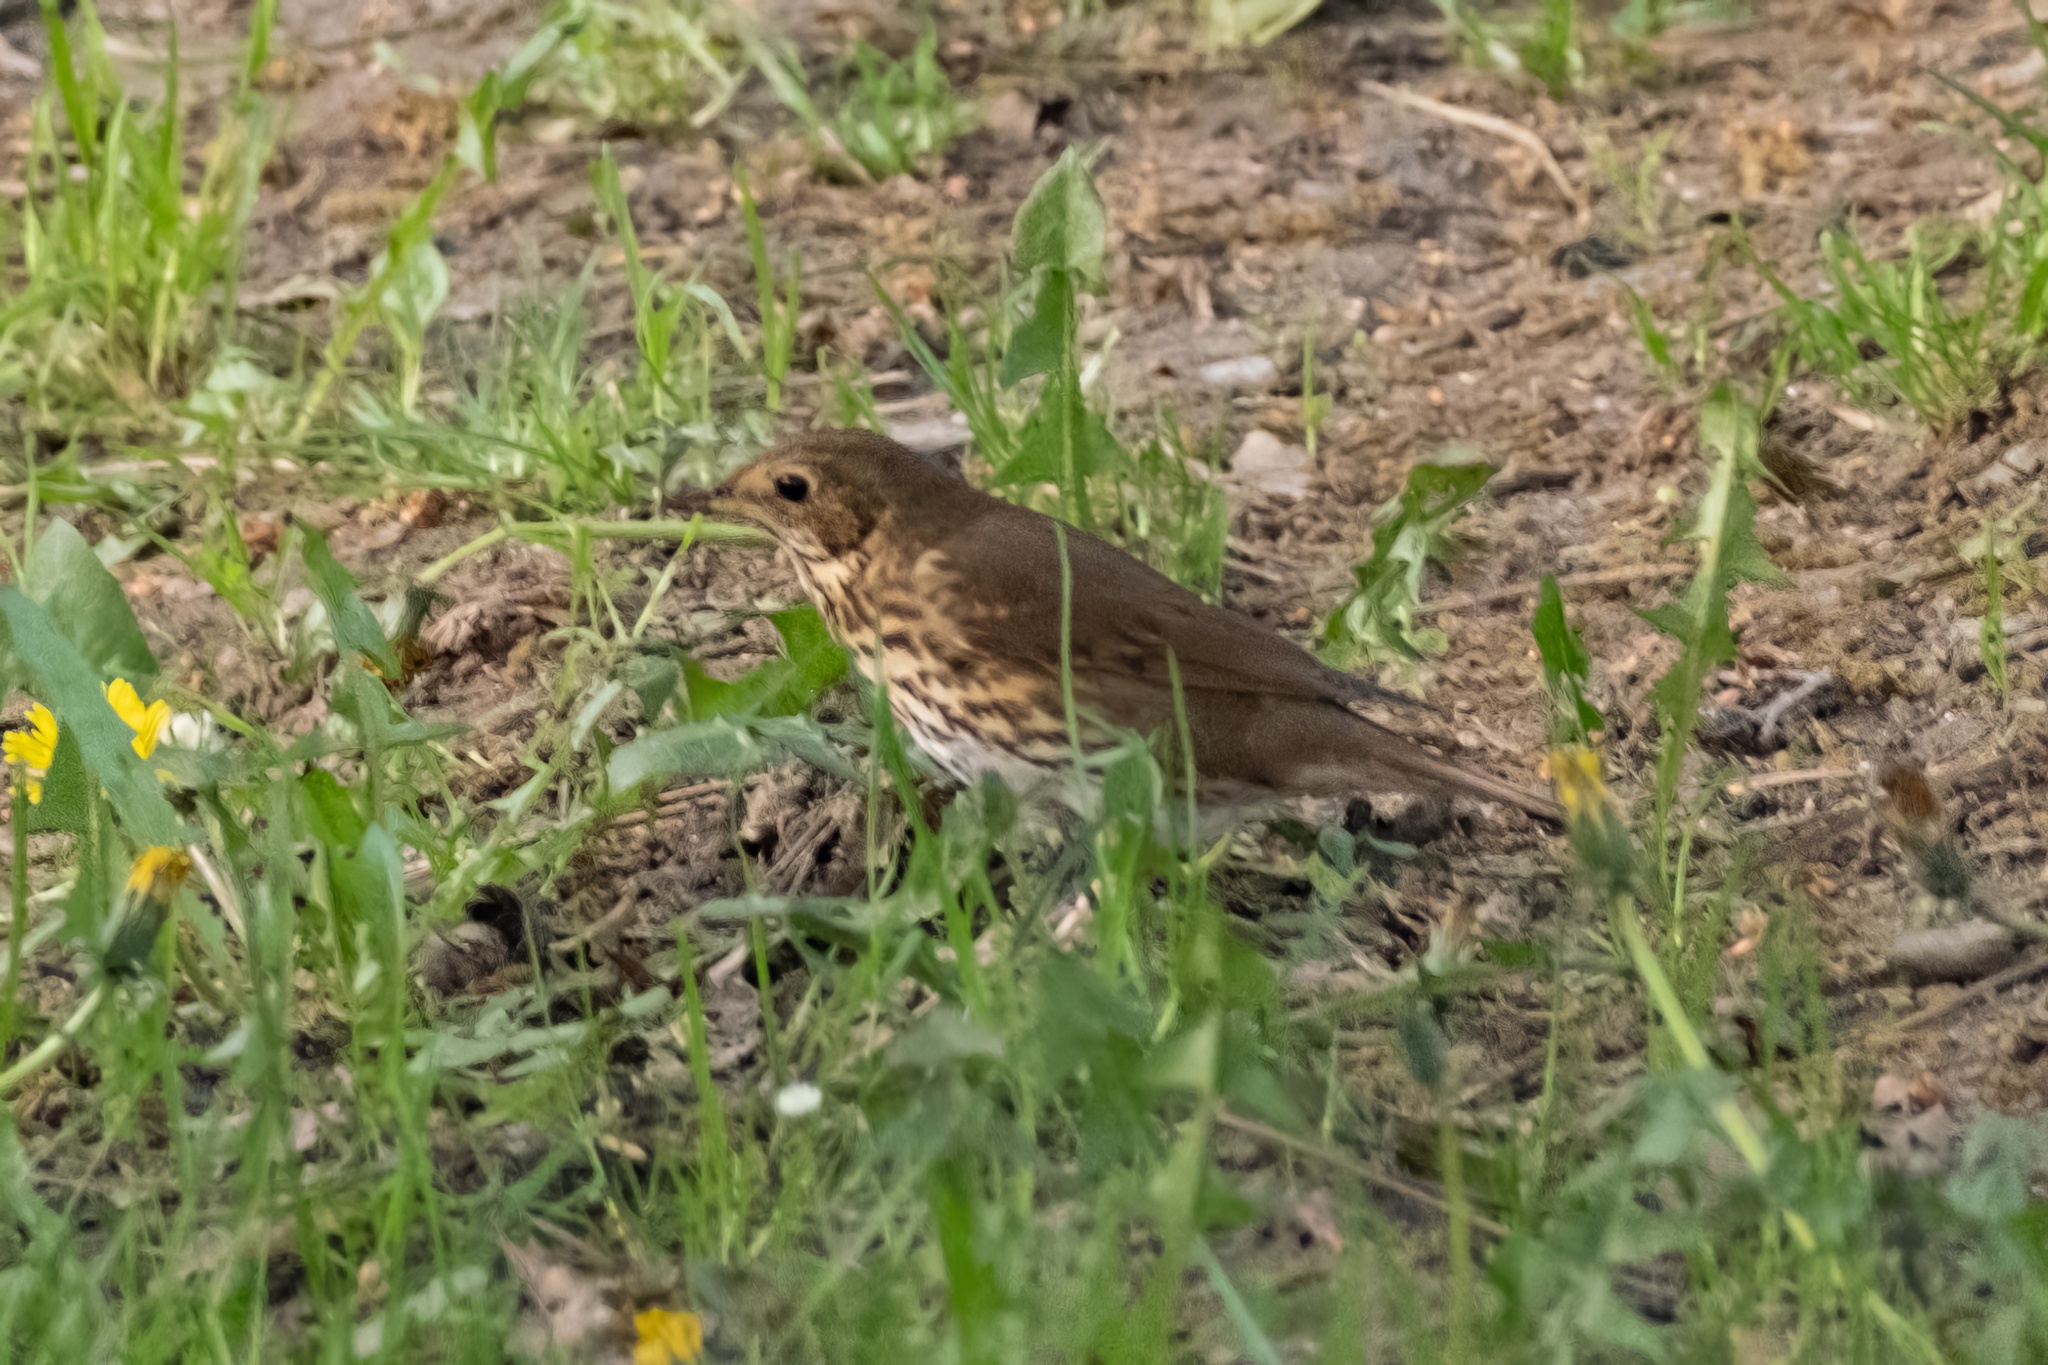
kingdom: Animalia
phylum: Chordata
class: Aves
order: Passeriformes
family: Turdidae
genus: Turdus
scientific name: Turdus philomelos
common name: Song thrush
